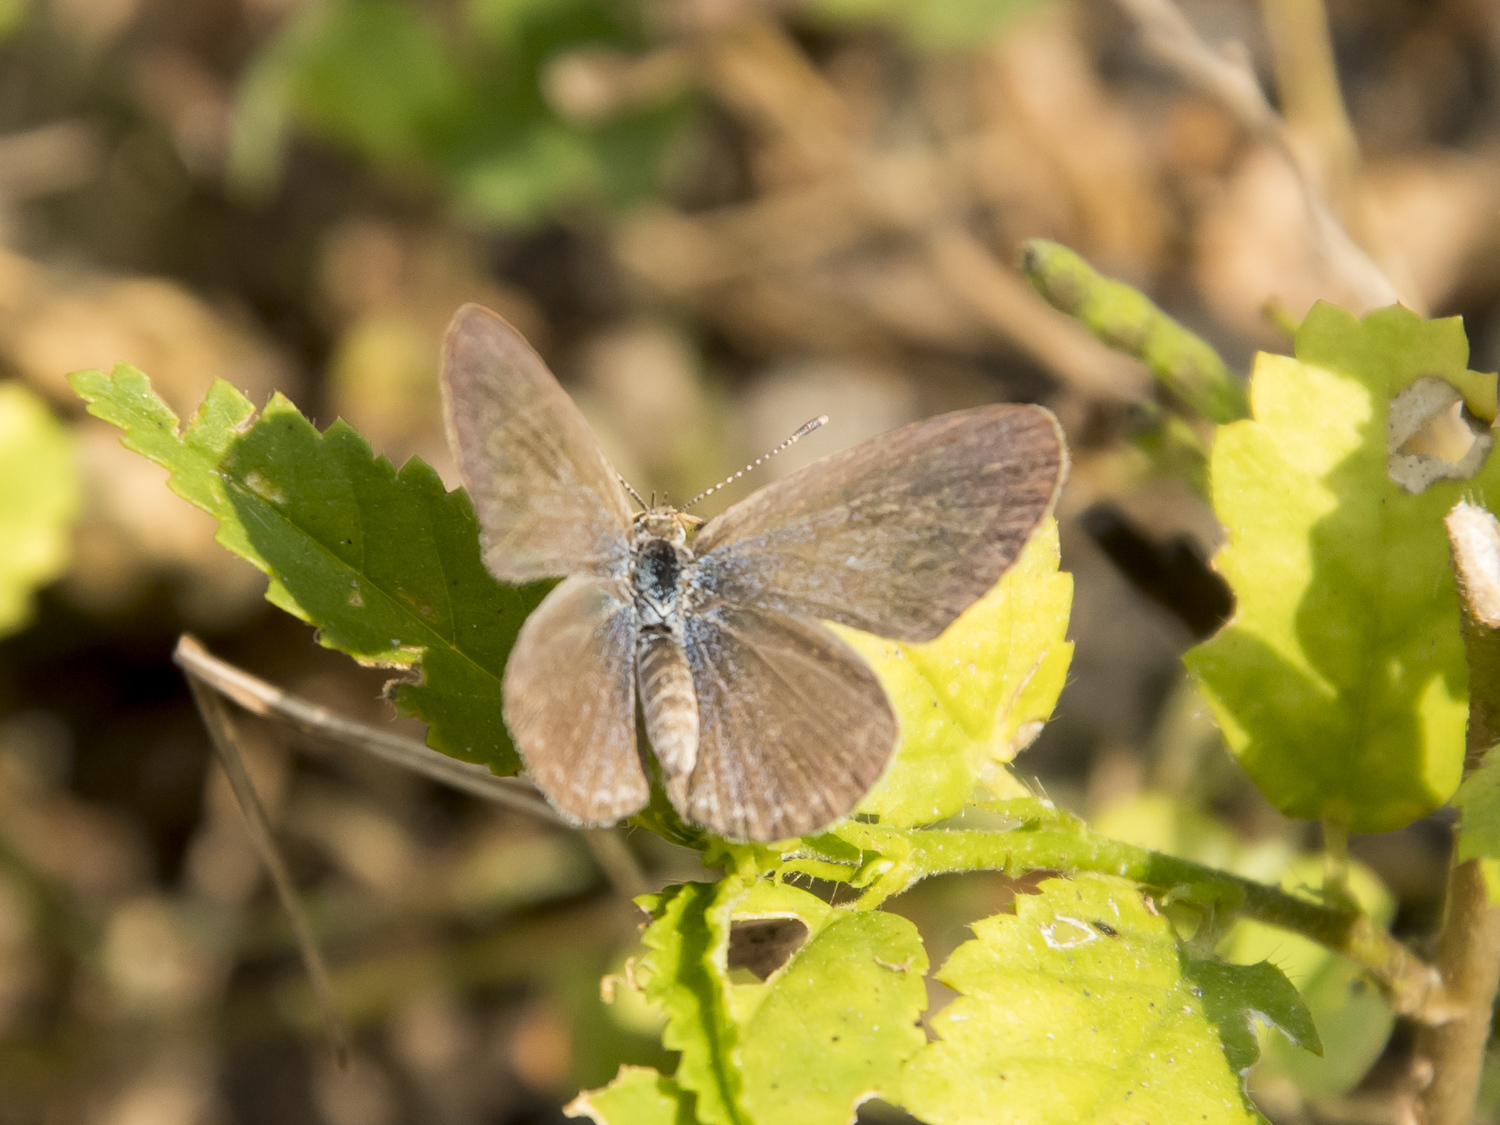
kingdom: Animalia
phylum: Arthropoda
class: Insecta
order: Lepidoptera
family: Lycaenidae
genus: Zizina
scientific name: Zizina otis
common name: Lesser grass blue
